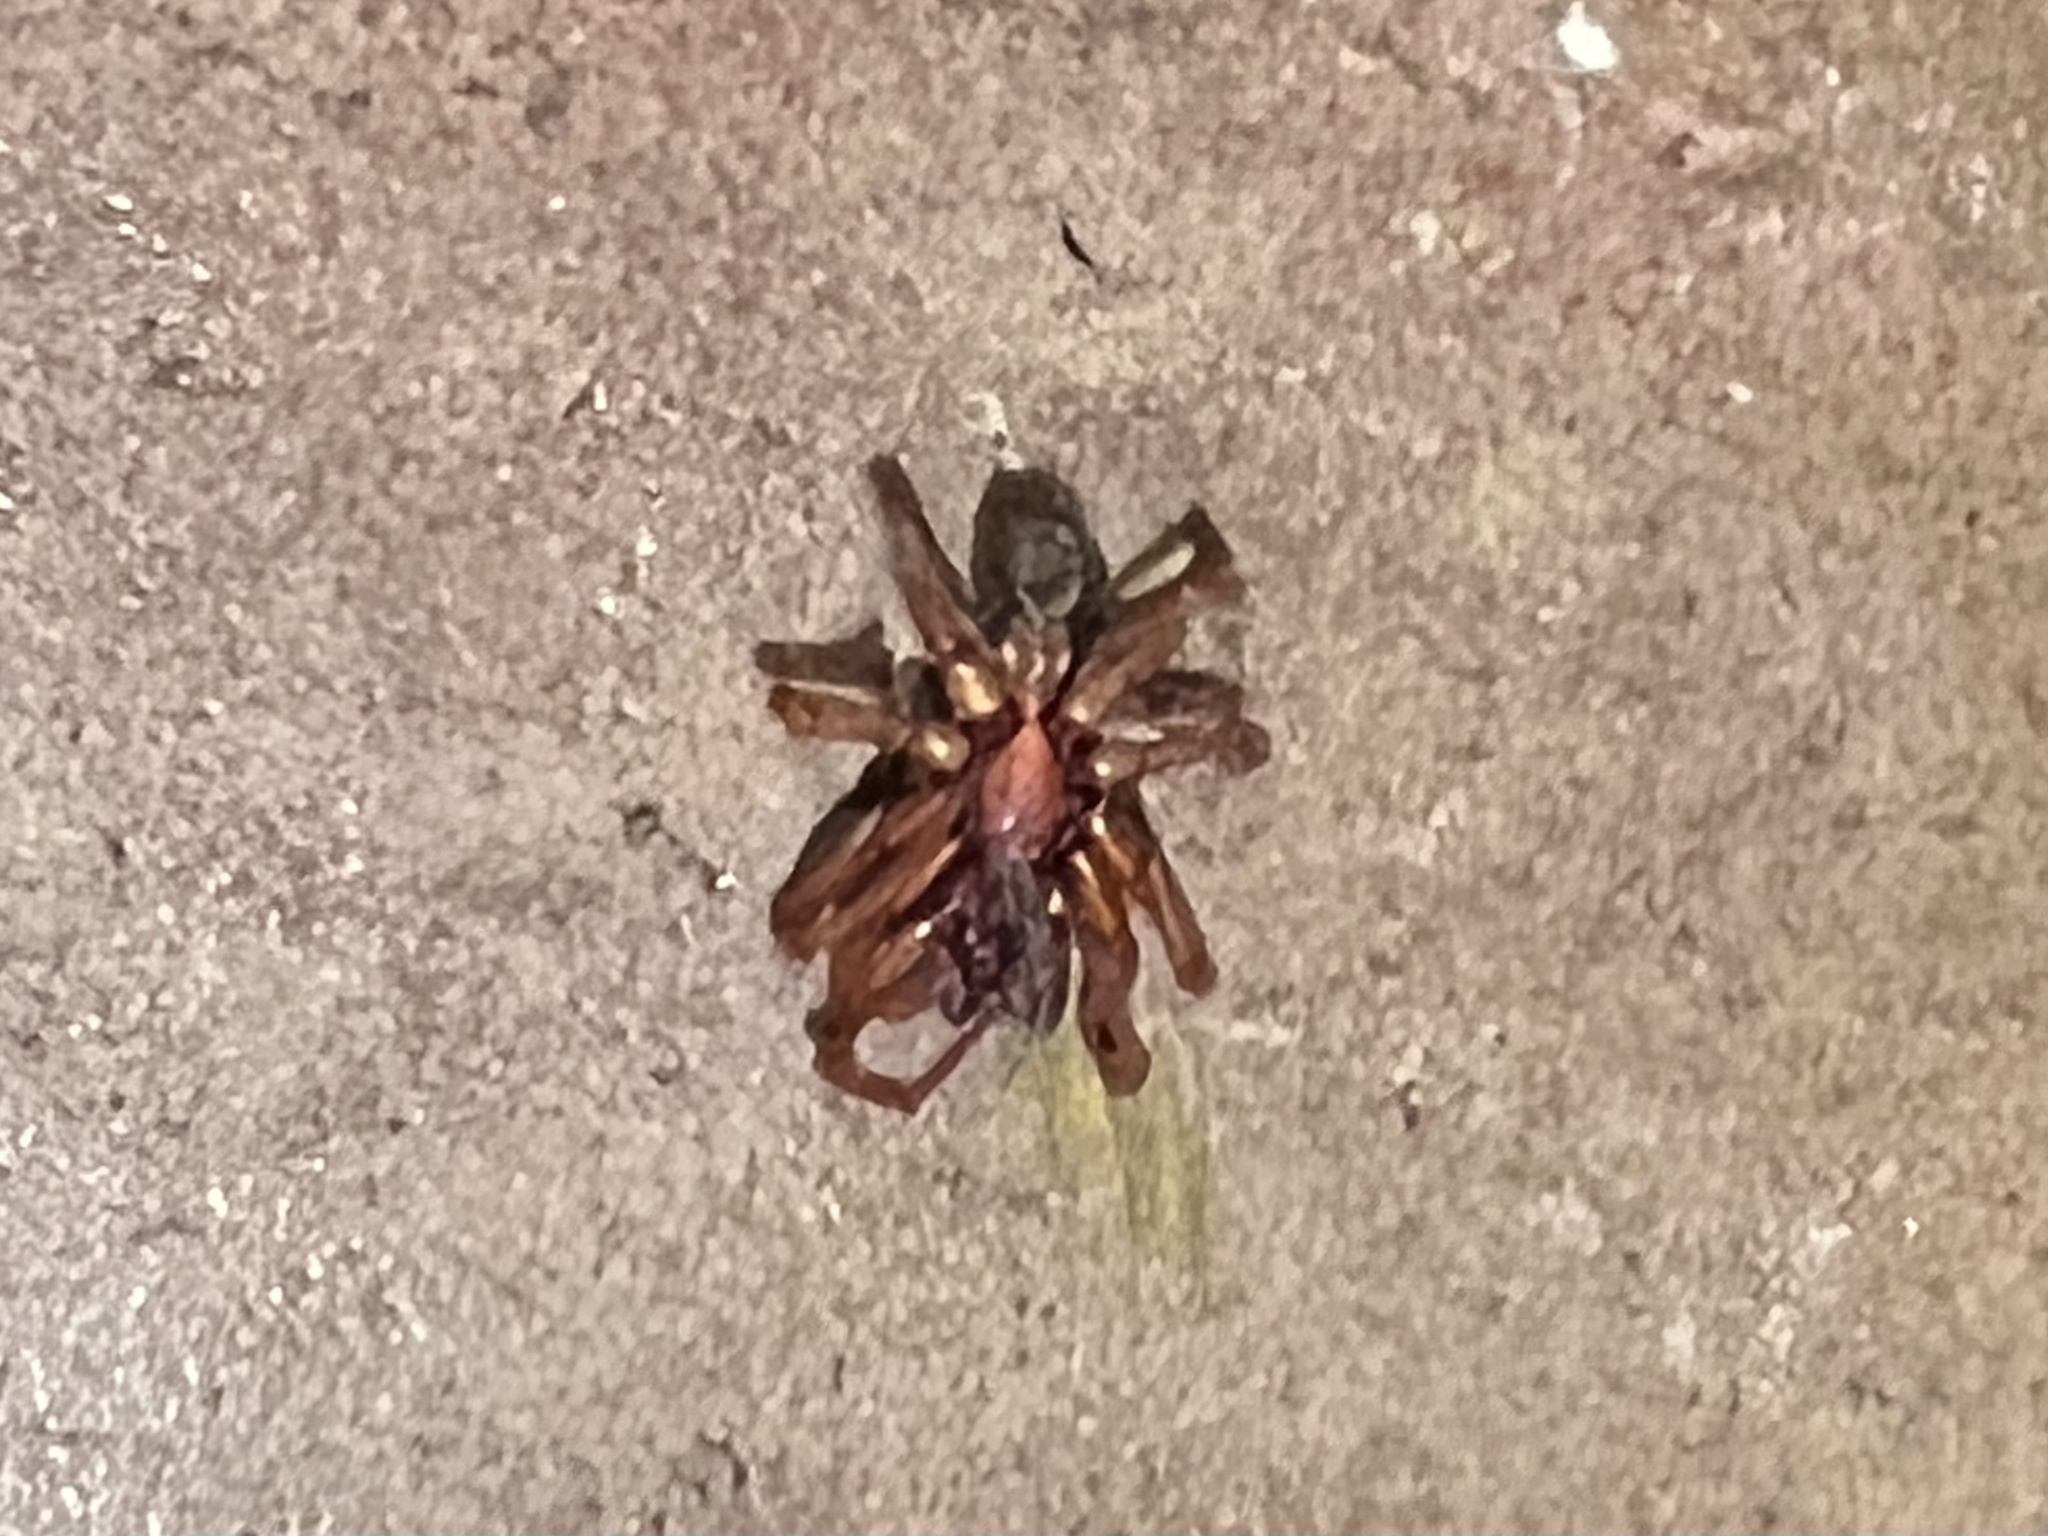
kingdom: Animalia
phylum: Arthropoda
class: Arachnida
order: Araneae
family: Dysderidae
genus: Dysdera
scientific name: Dysdera crocata
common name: Woodlouse spider
